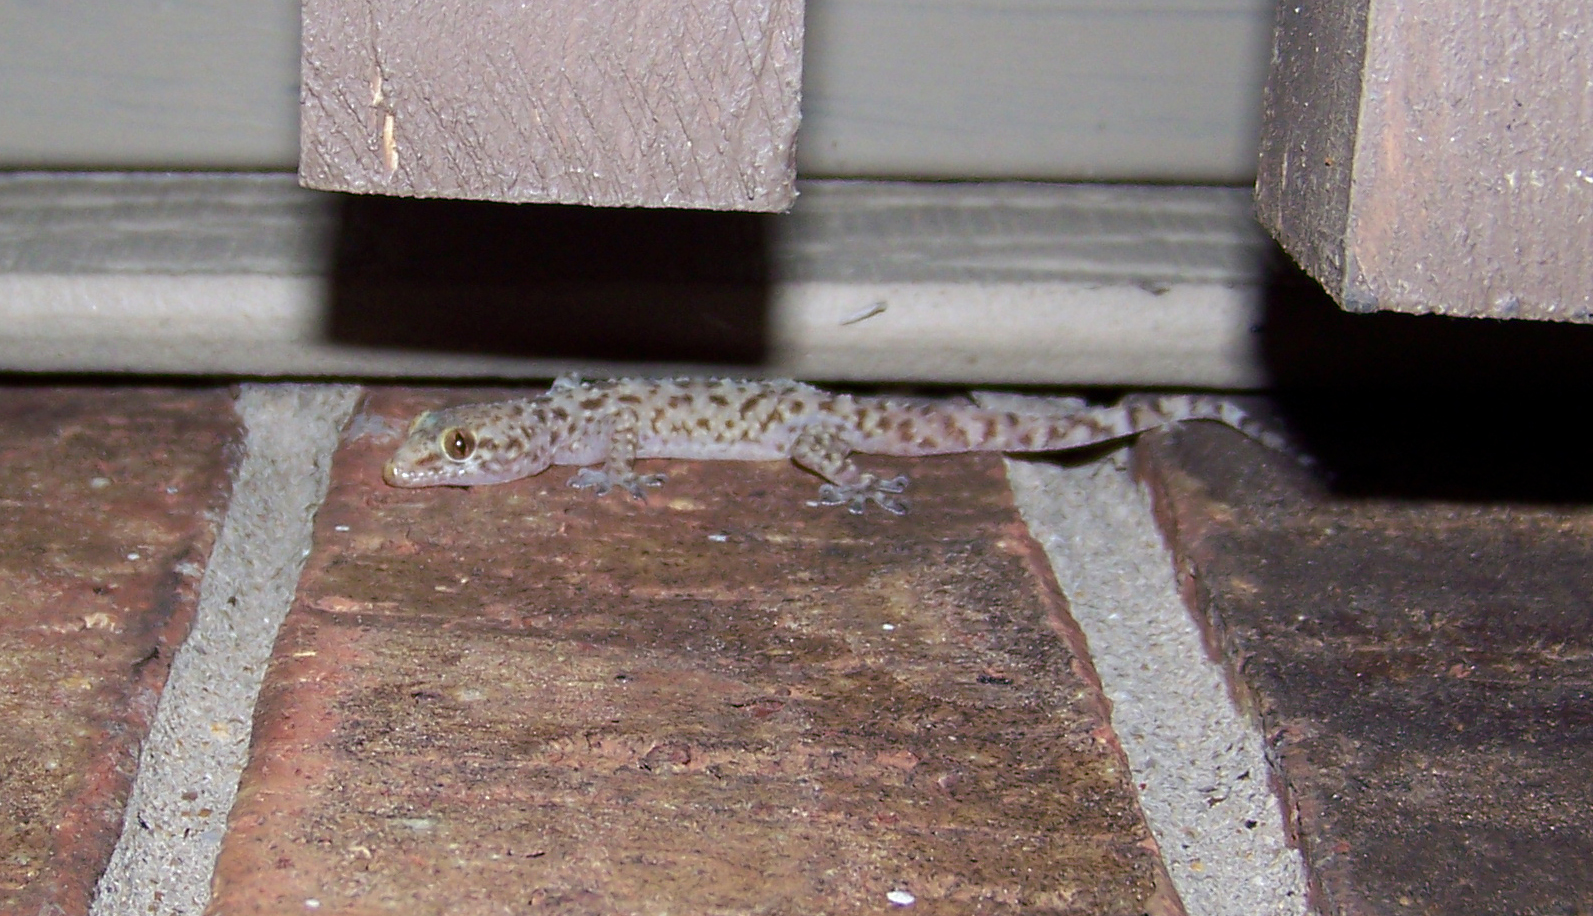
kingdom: Animalia
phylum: Chordata
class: Squamata
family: Gekkonidae
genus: Hemidactylus
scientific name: Hemidactylus turcicus
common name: Turkish gecko
